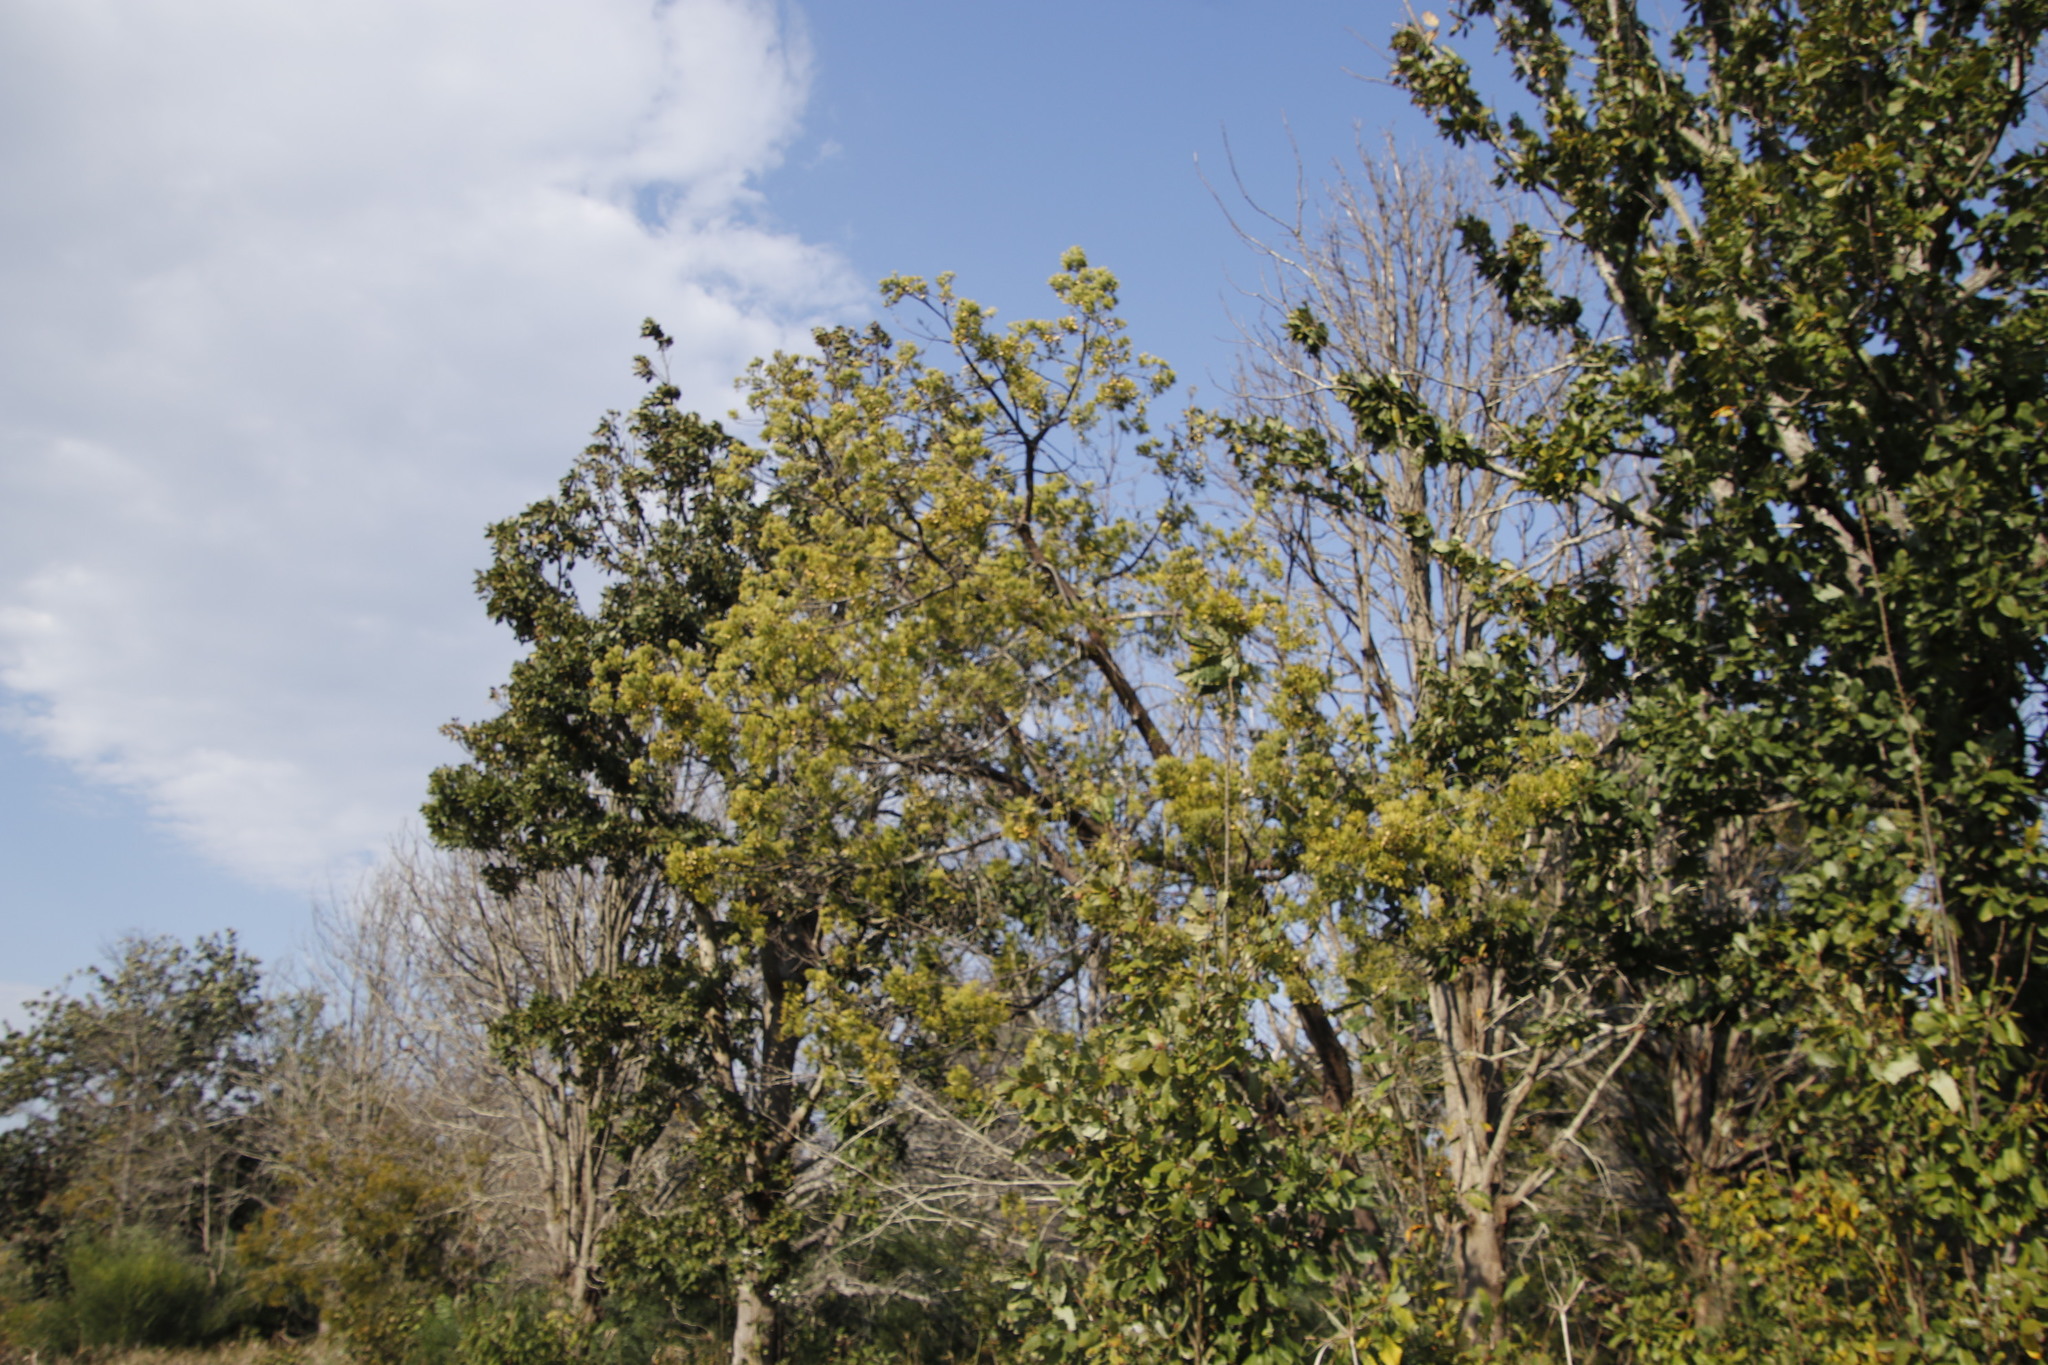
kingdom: Plantae
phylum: Tracheophyta
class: Pinopsida
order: Pinales
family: Podocarpaceae
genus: Afrocarpus
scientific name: Afrocarpus falcatus
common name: Bastard yellowwood
